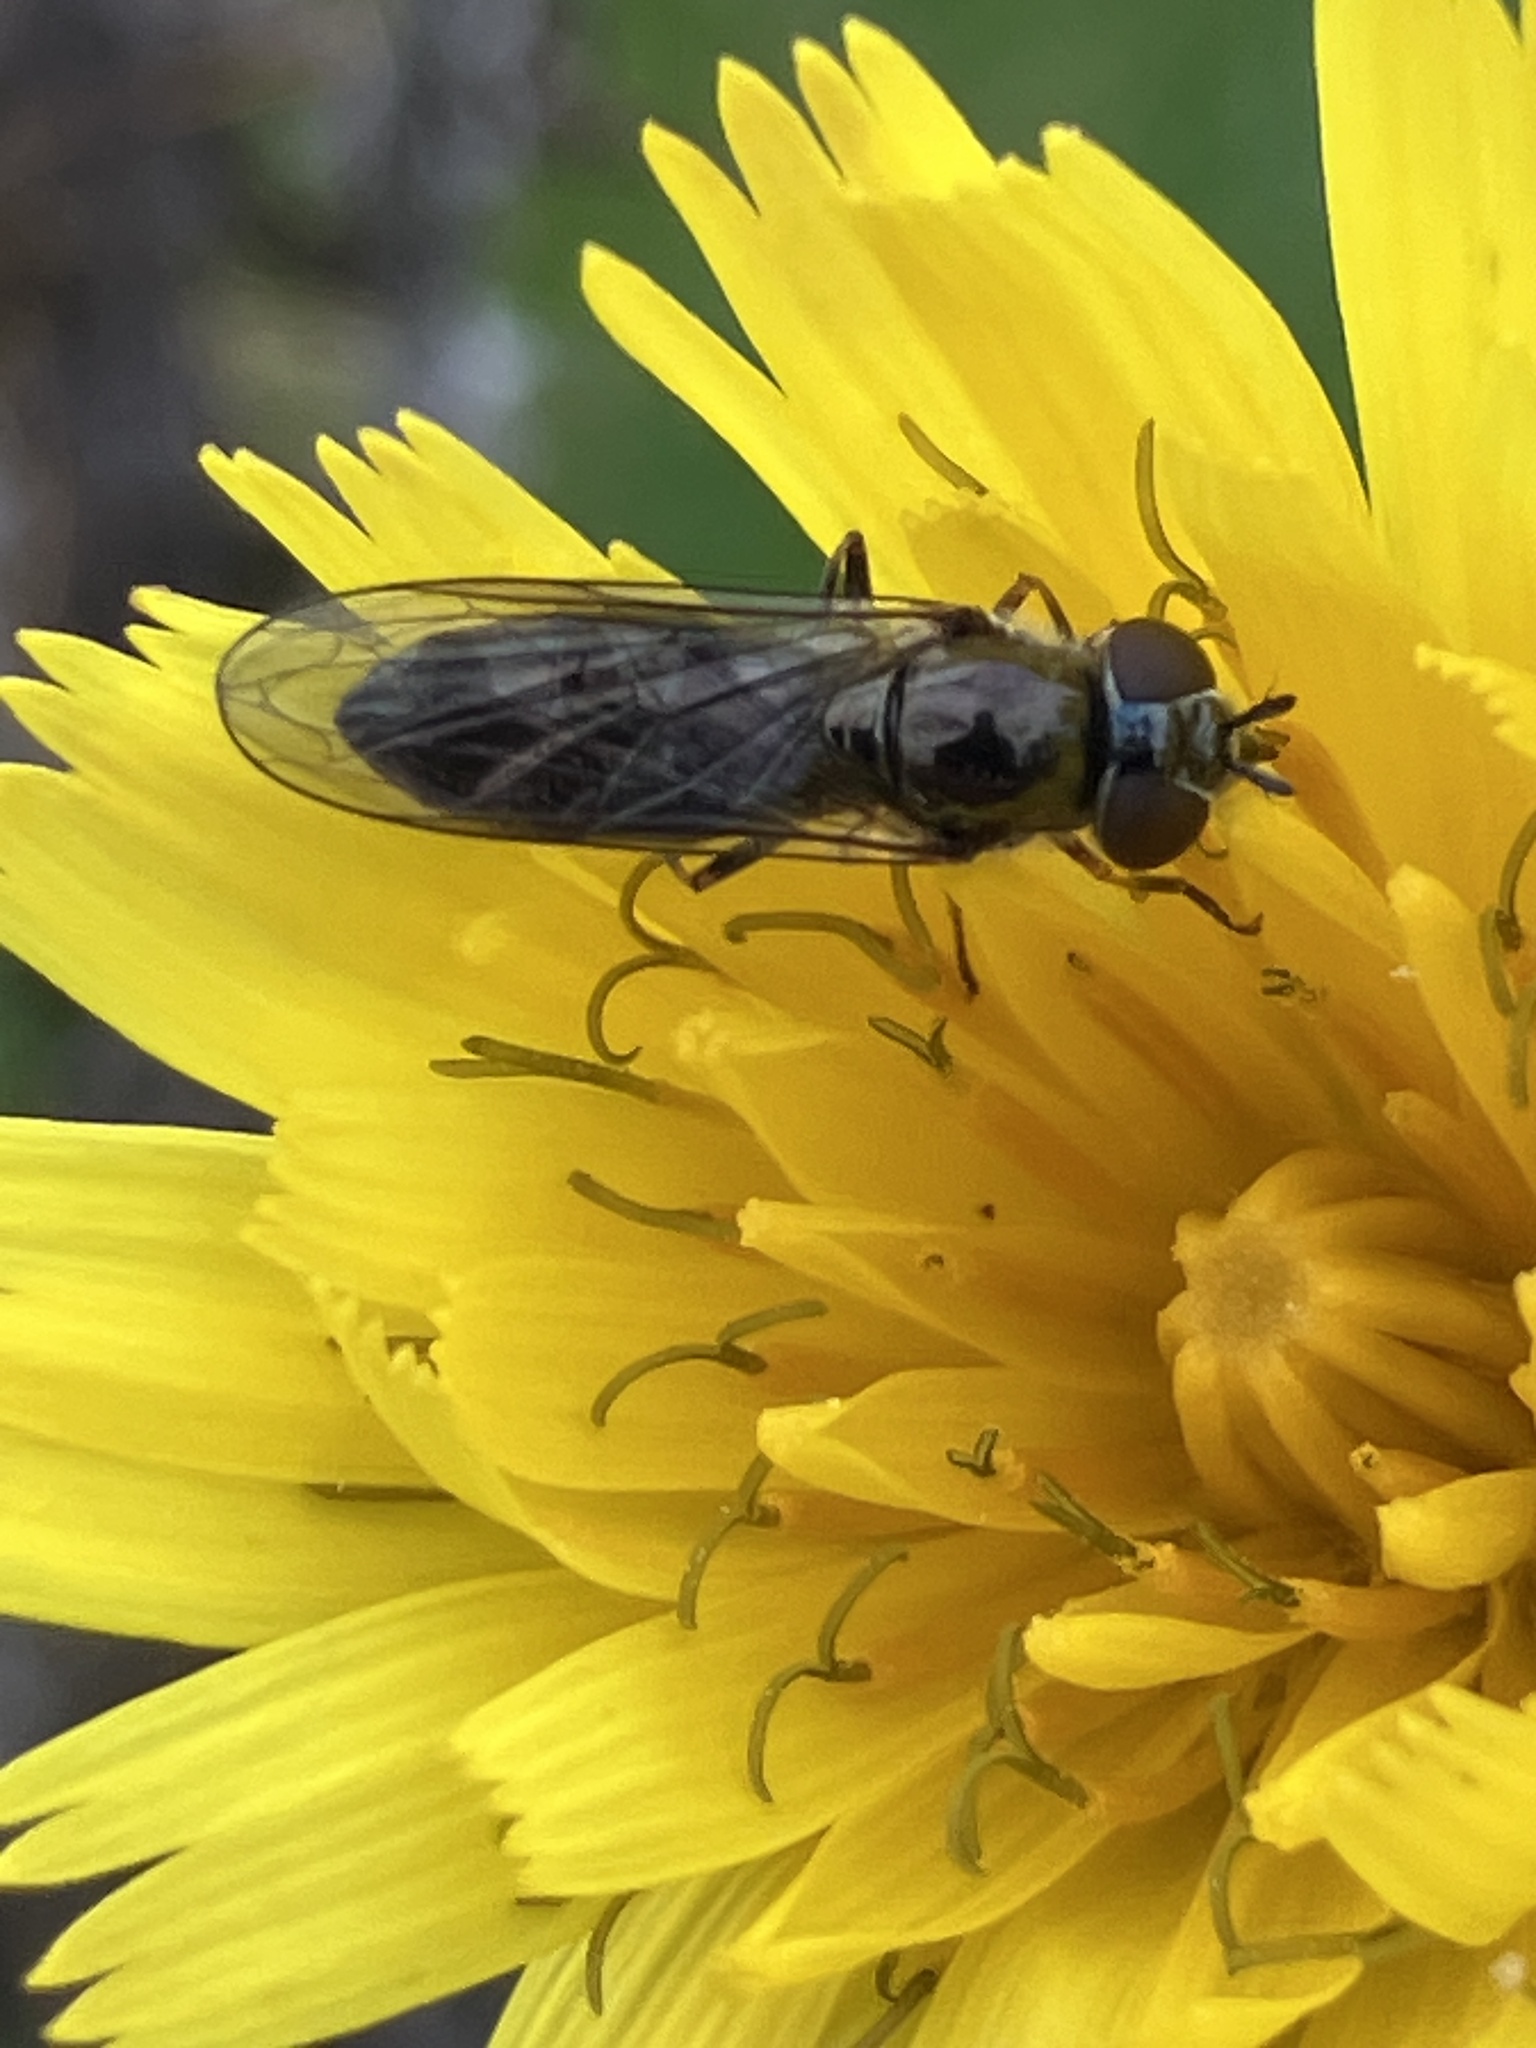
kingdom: Animalia
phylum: Arthropoda
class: Insecta
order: Diptera
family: Syrphidae
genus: Platycheirus
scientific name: Platycheirus albimanus
